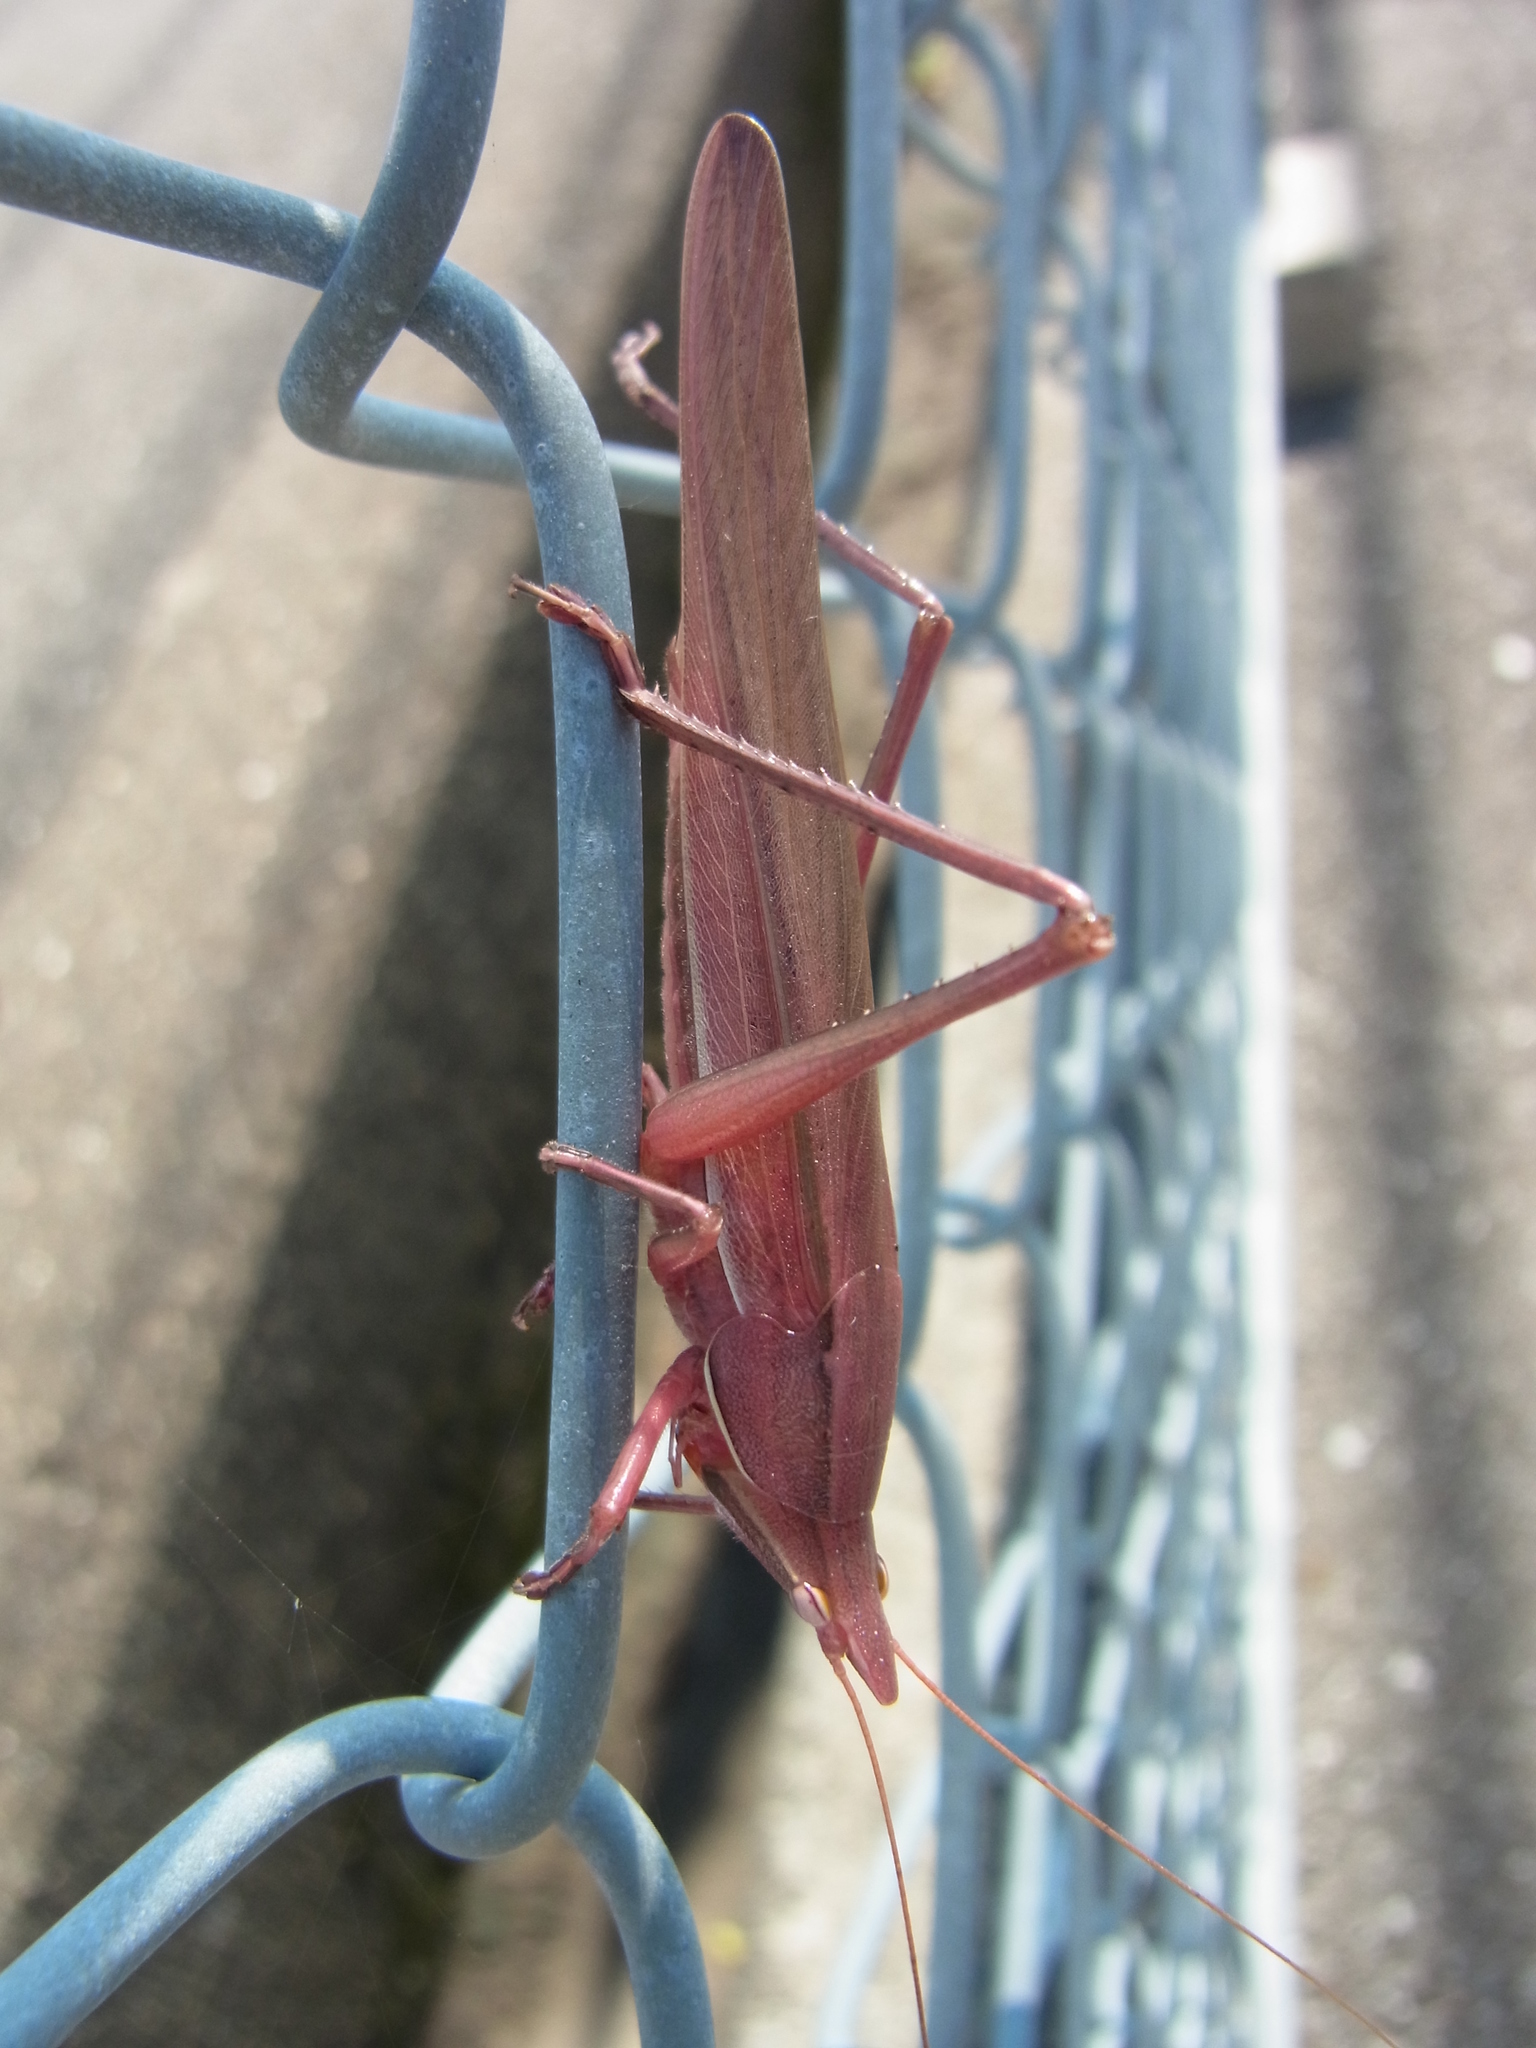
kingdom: Animalia
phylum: Arthropoda
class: Insecta
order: Orthoptera
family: Tettigoniidae
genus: Euconocephalus
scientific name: Euconocephalus varius
